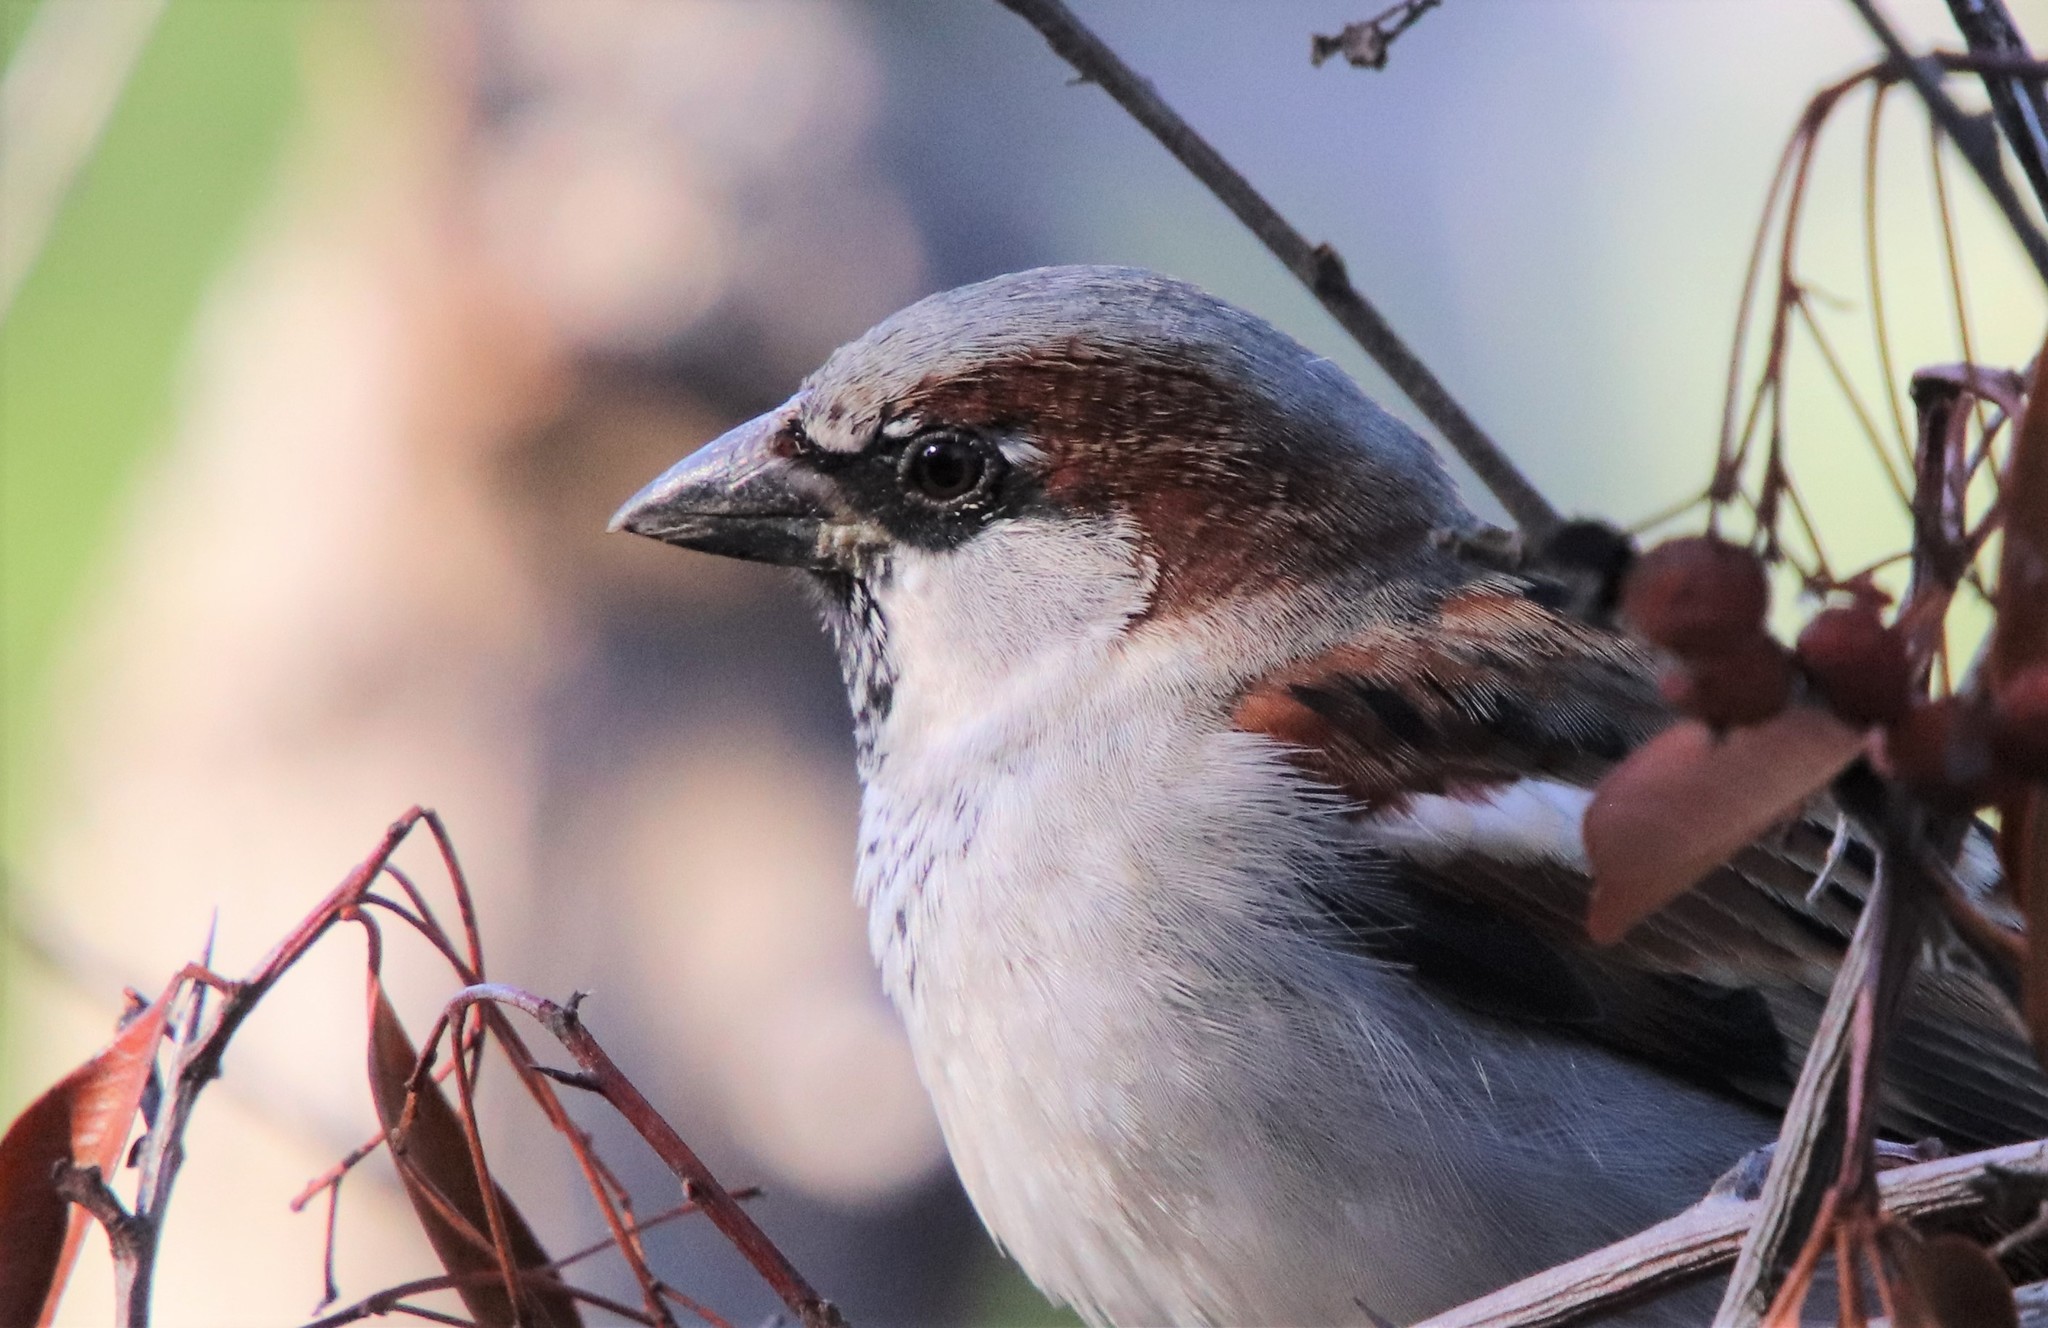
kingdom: Animalia
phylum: Chordata
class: Aves
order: Passeriformes
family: Passeridae
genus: Passer
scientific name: Passer domesticus
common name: House sparrow
